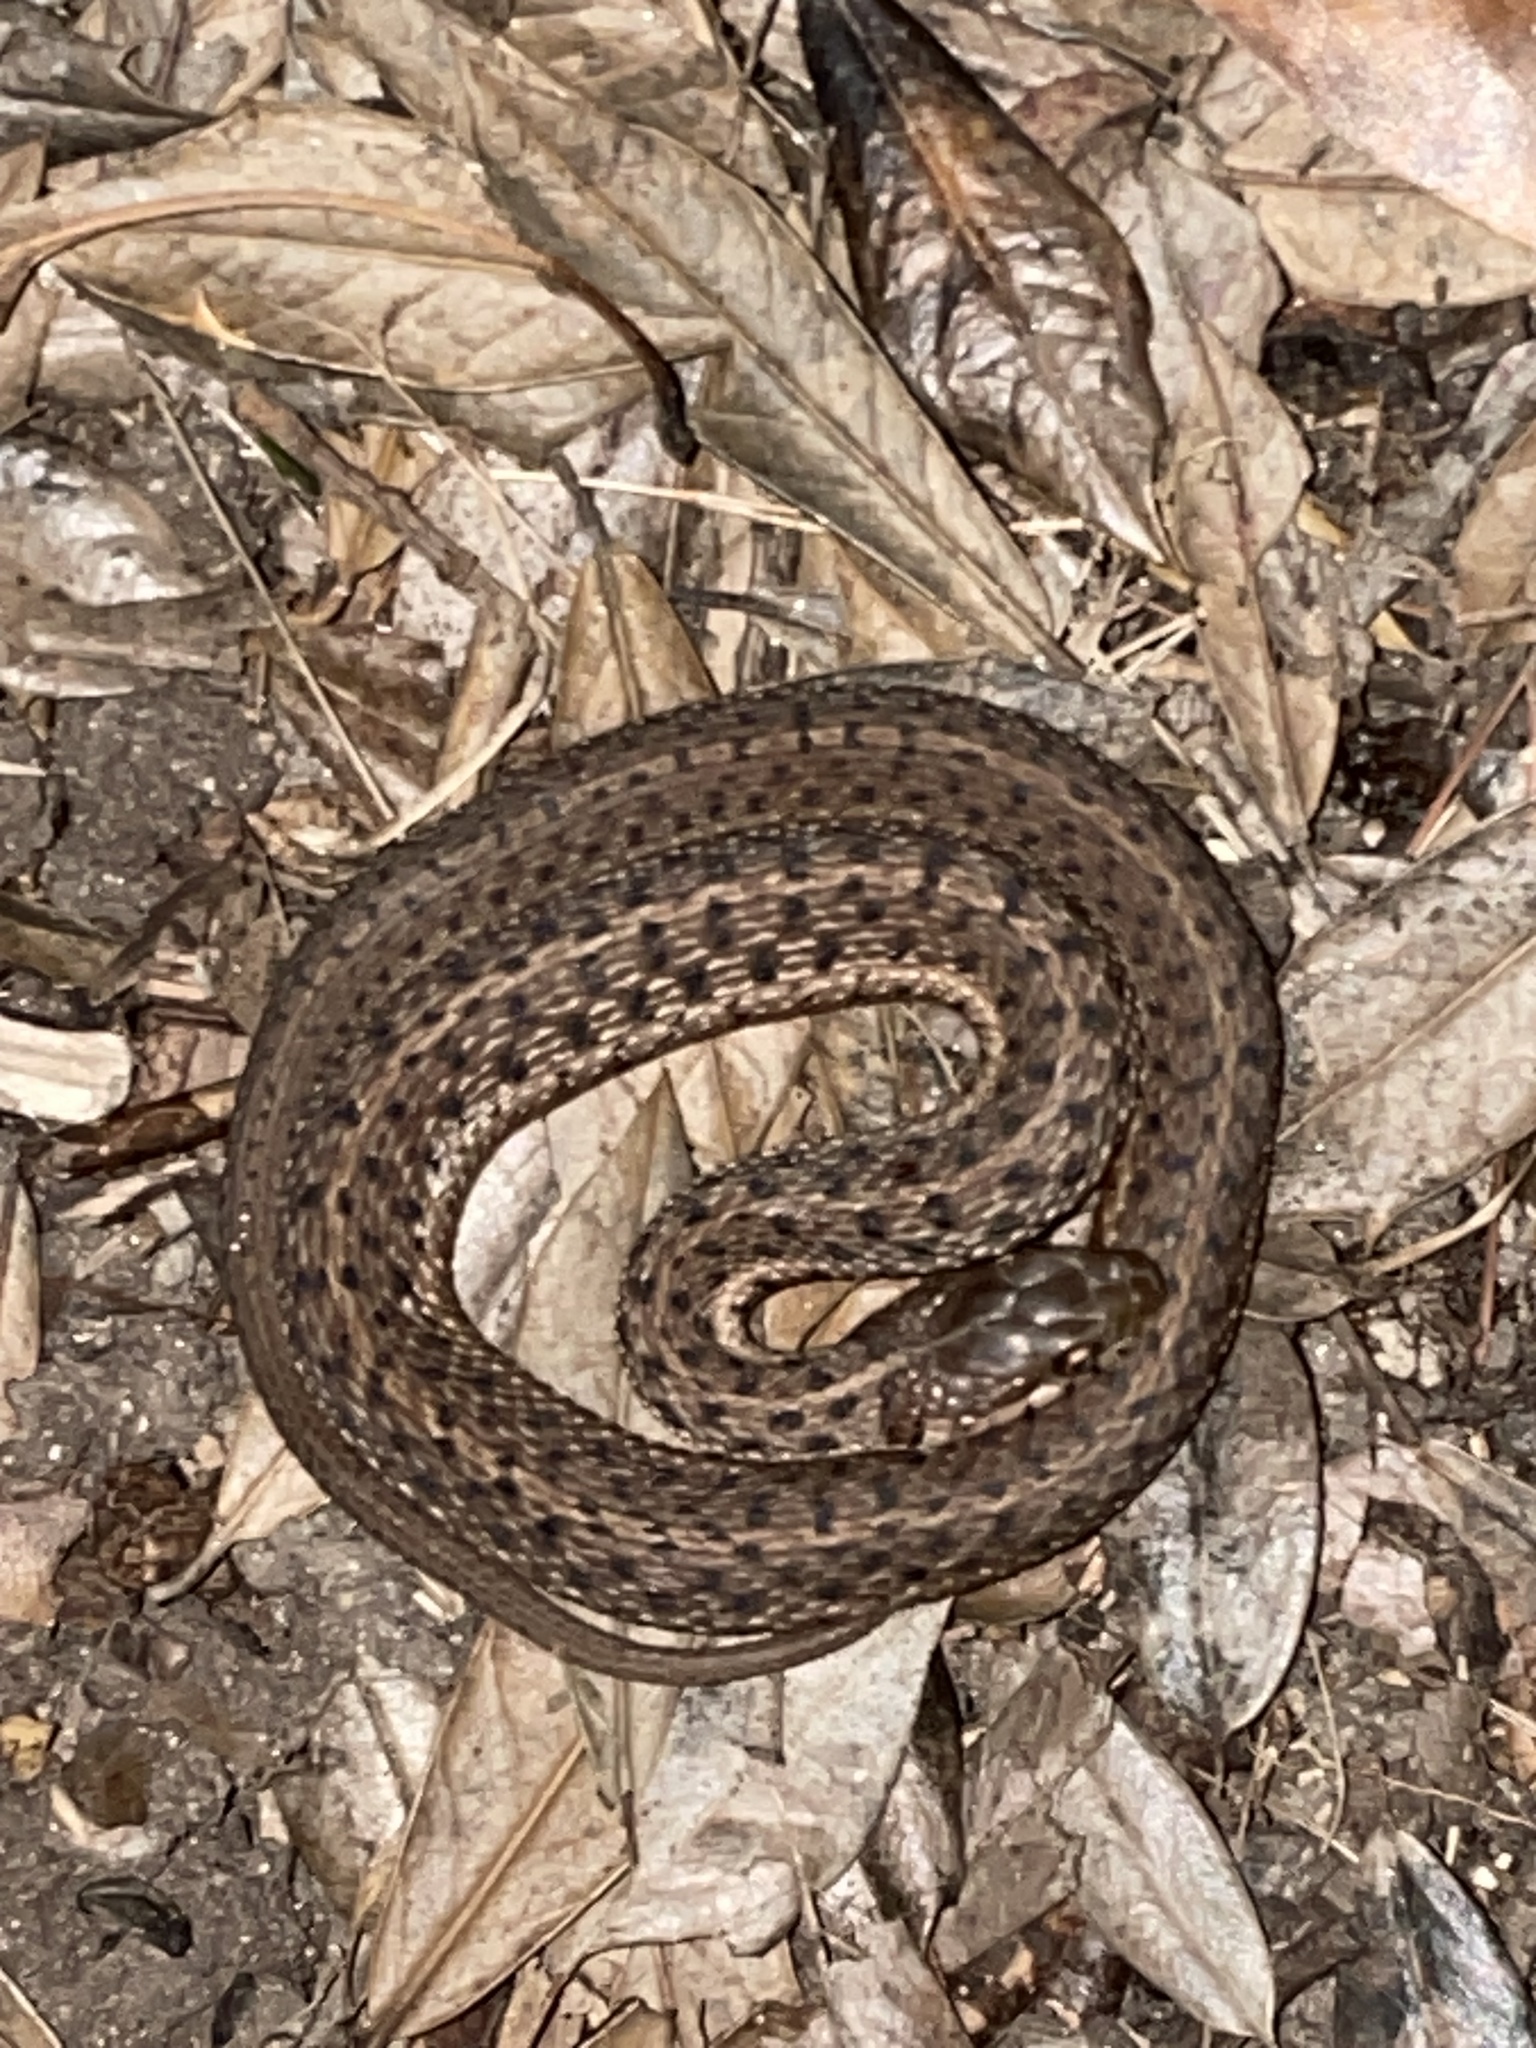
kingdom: Animalia
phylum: Chordata
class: Squamata
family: Colubridae
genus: Thamnophis
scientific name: Thamnophis sirtalis
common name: Common garter snake
